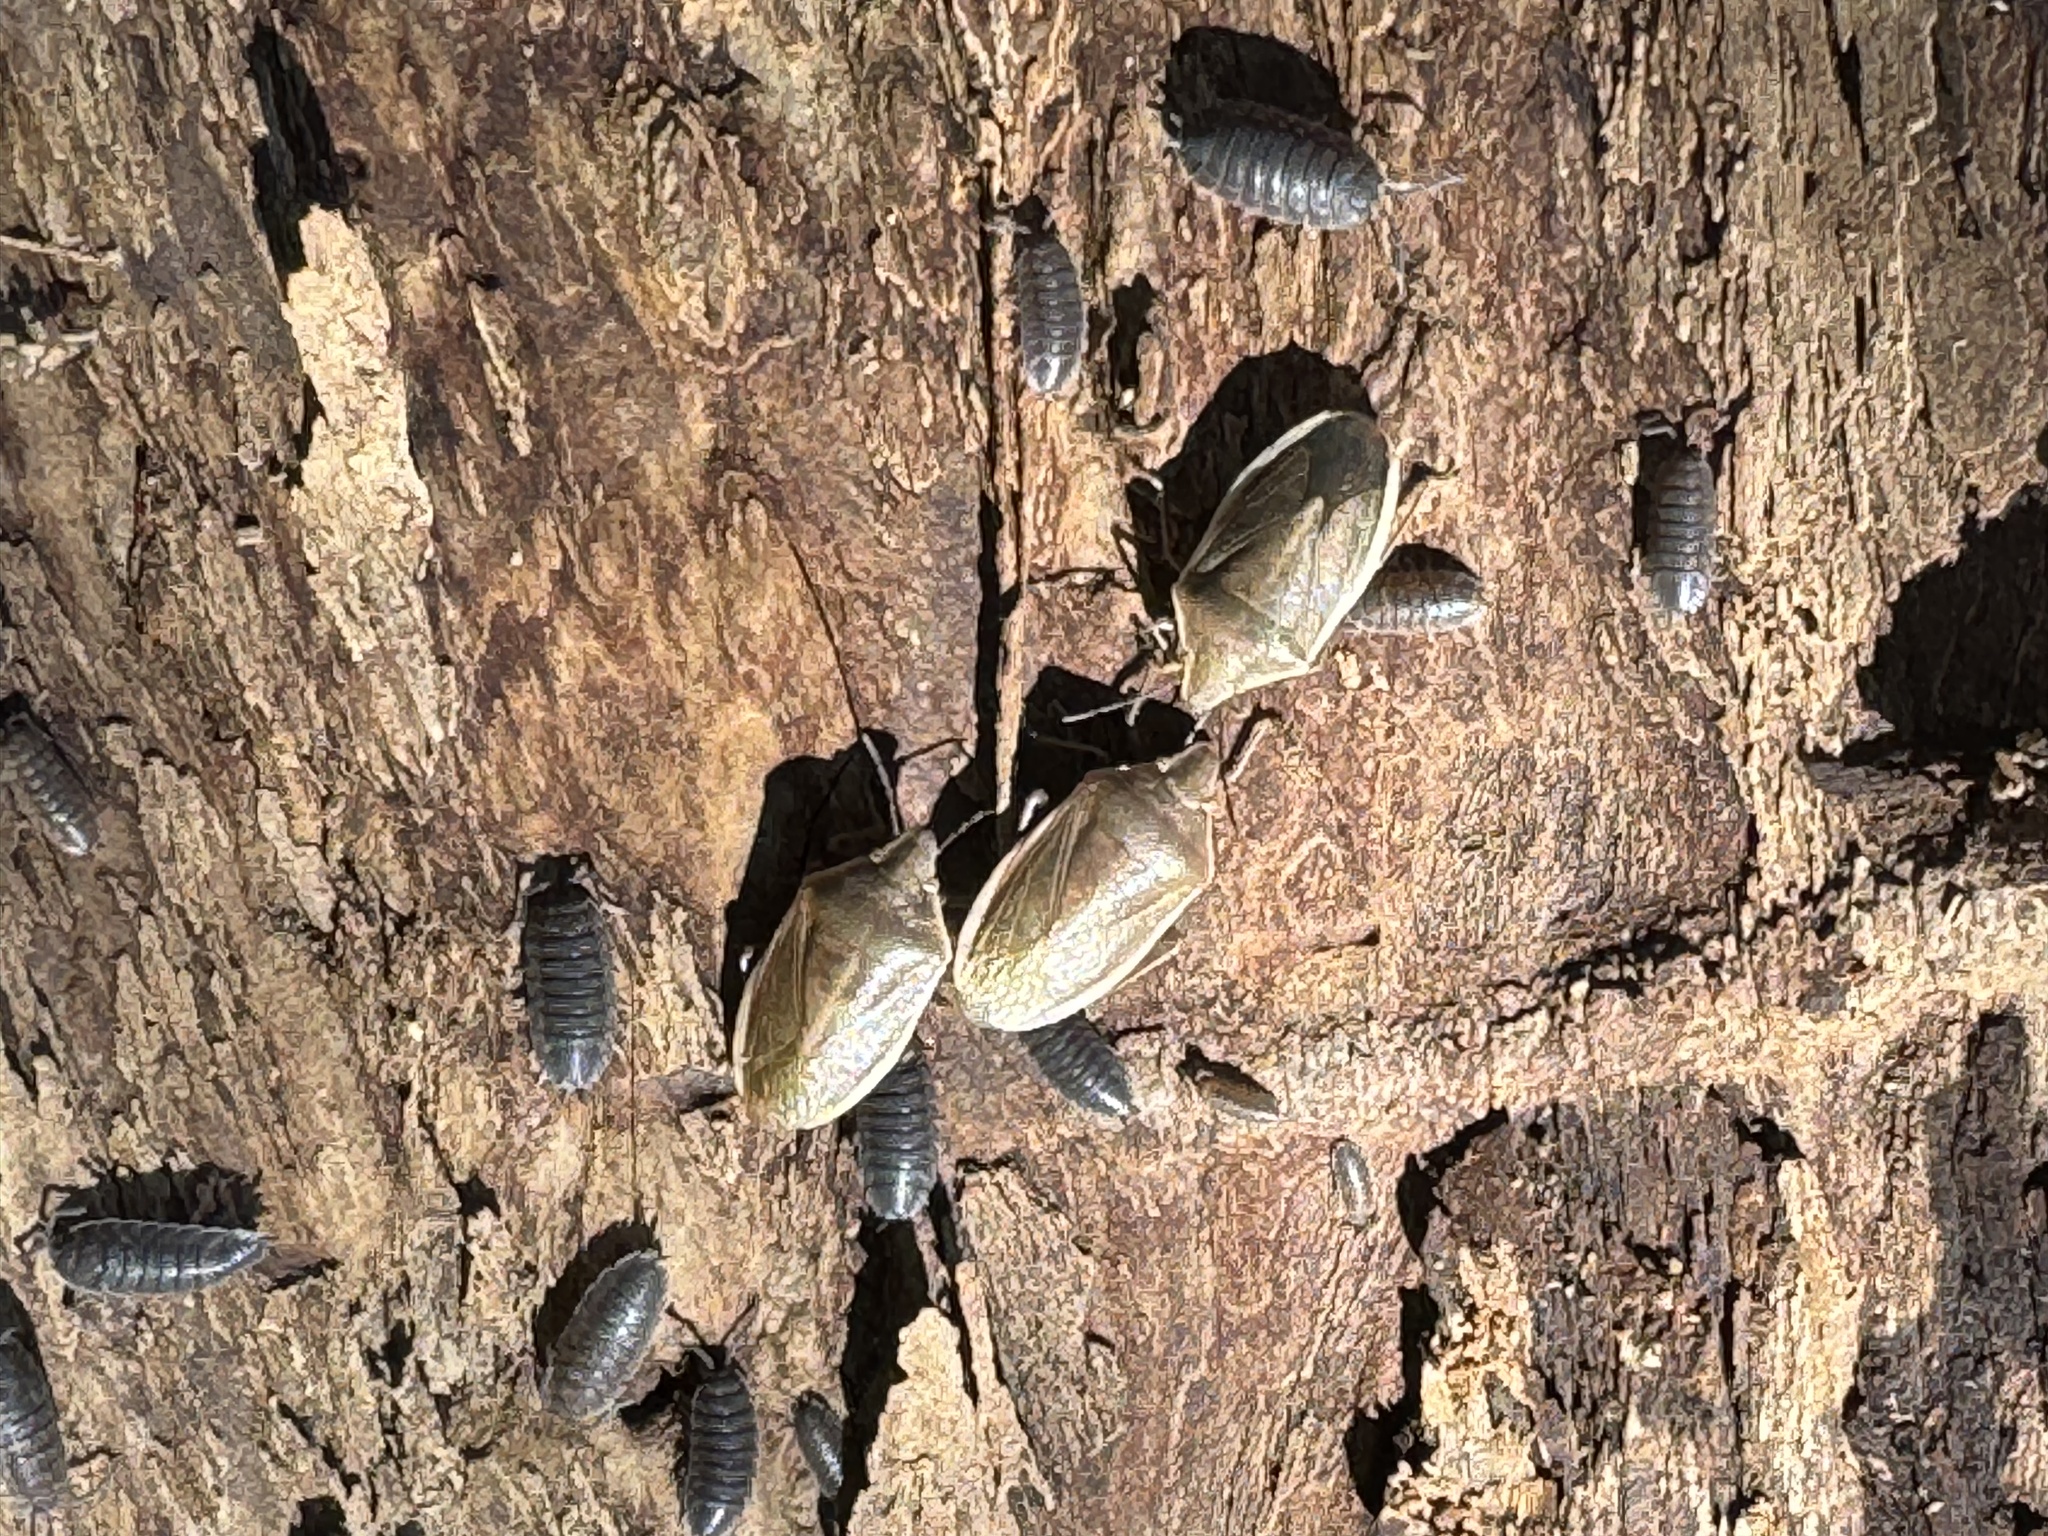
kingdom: Animalia
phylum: Arthropoda
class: Insecta
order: Hemiptera
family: Pentatomidae
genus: Chlorochroa
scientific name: Chlorochroa senilis
